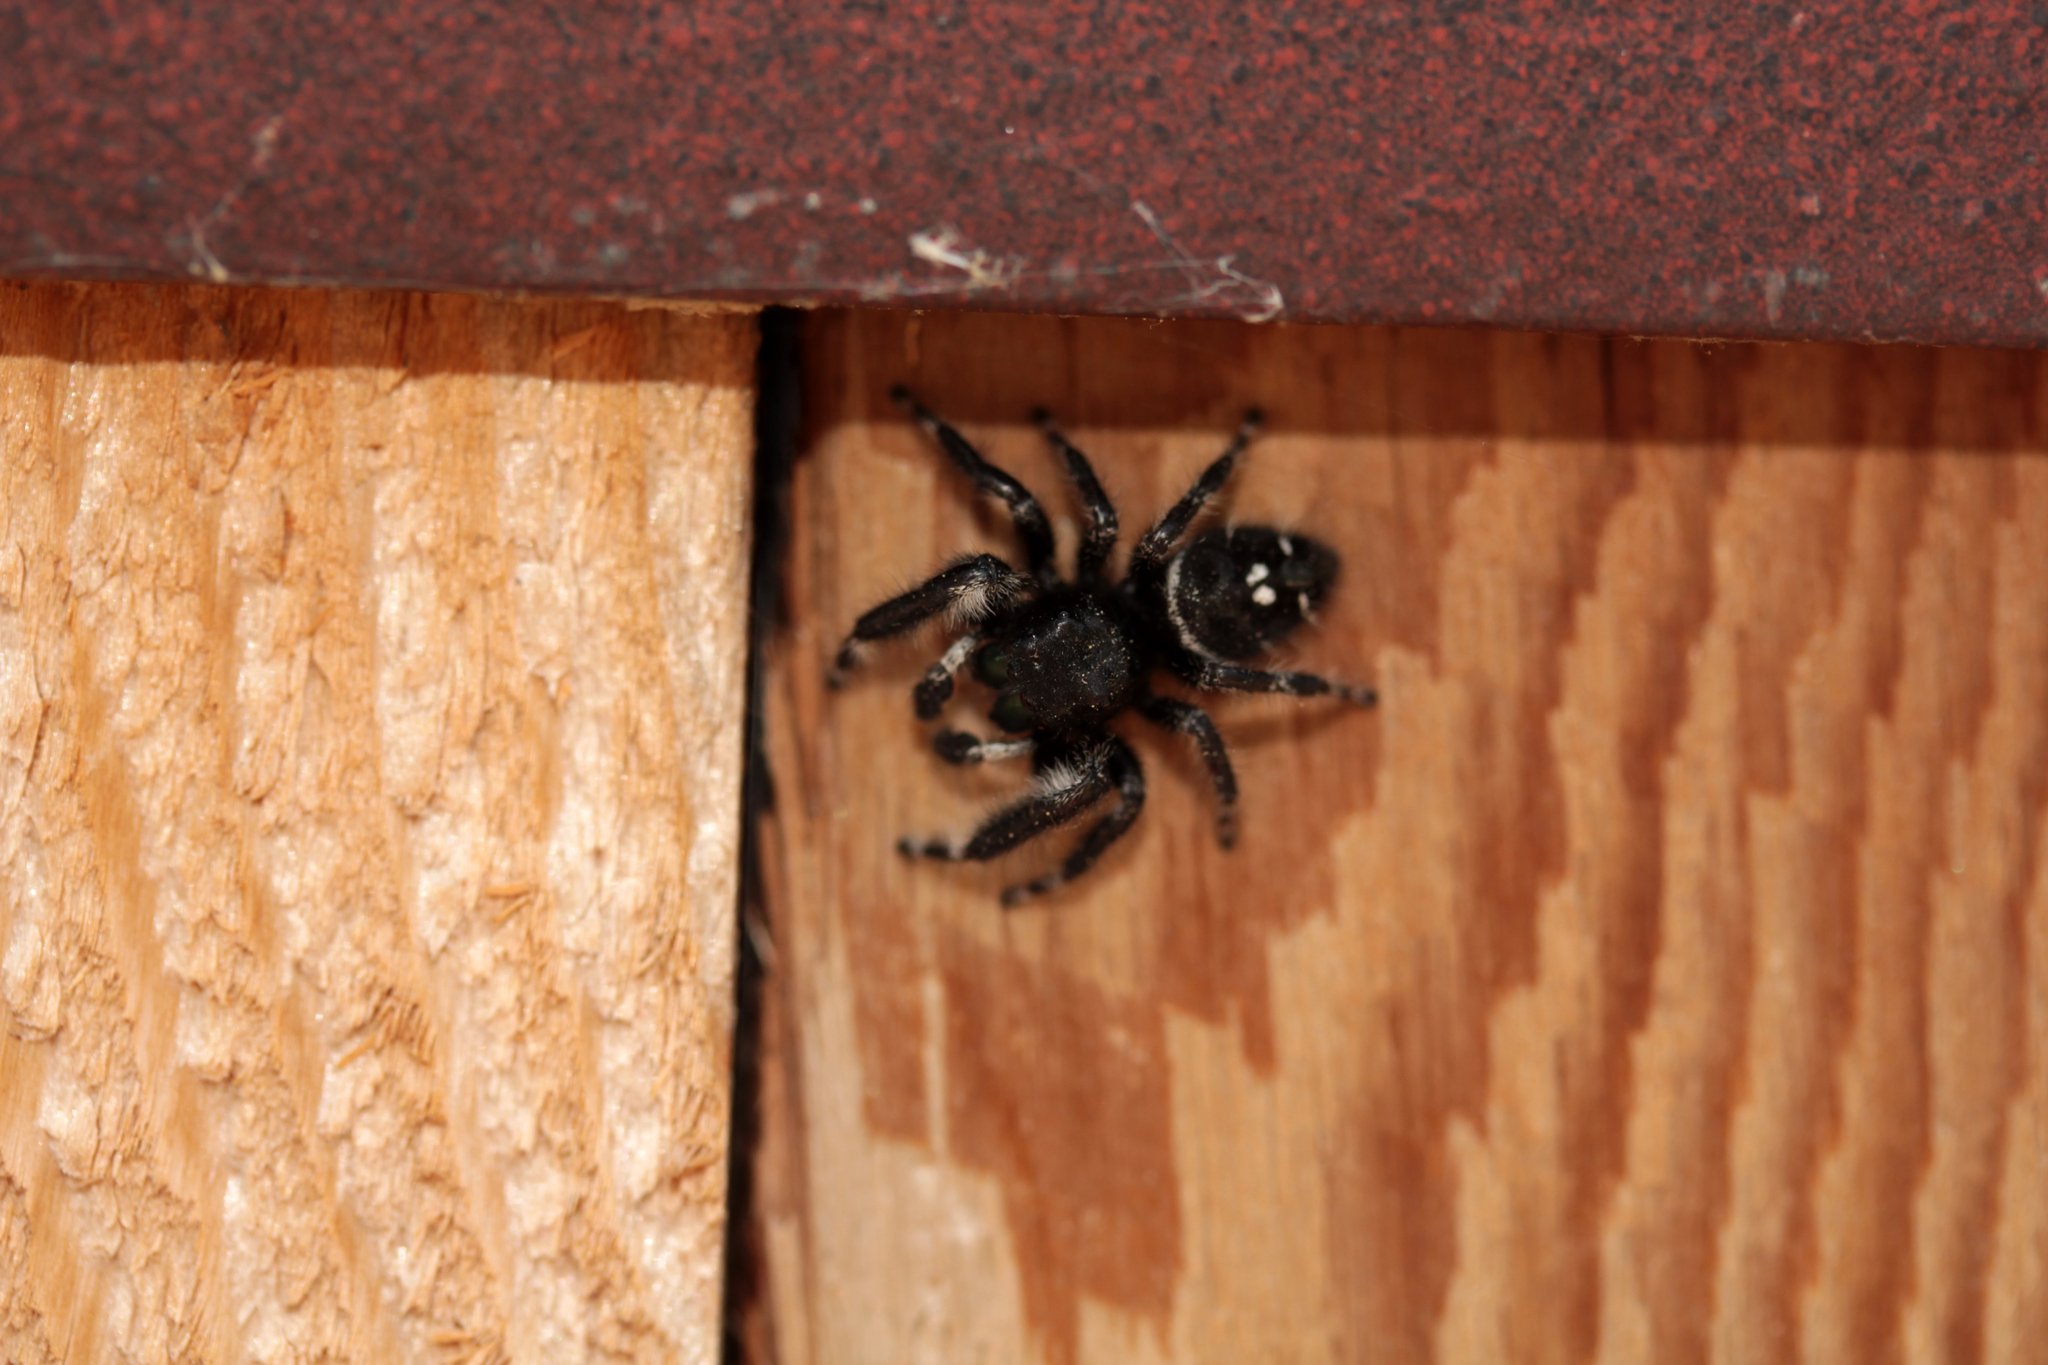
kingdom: Animalia
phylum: Arthropoda
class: Arachnida
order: Araneae
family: Salticidae
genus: Phidippus
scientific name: Phidippus audax
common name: Bold jumper
